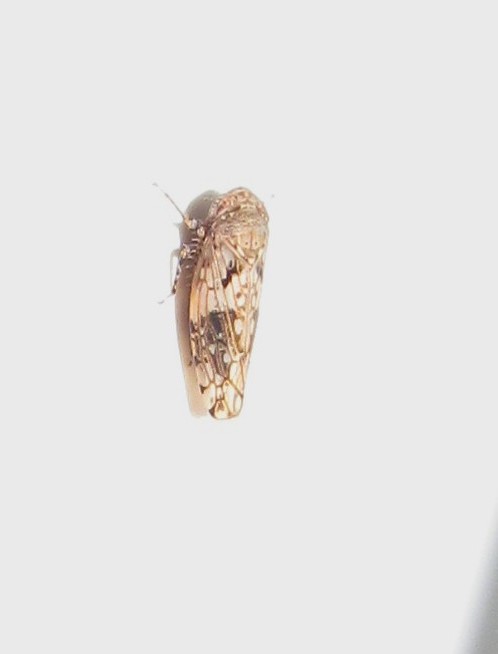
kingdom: Animalia
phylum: Arthropoda
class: Insecta
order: Hemiptera
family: Cicadellidae
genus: Menosoma
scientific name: Menosoma cinctum
